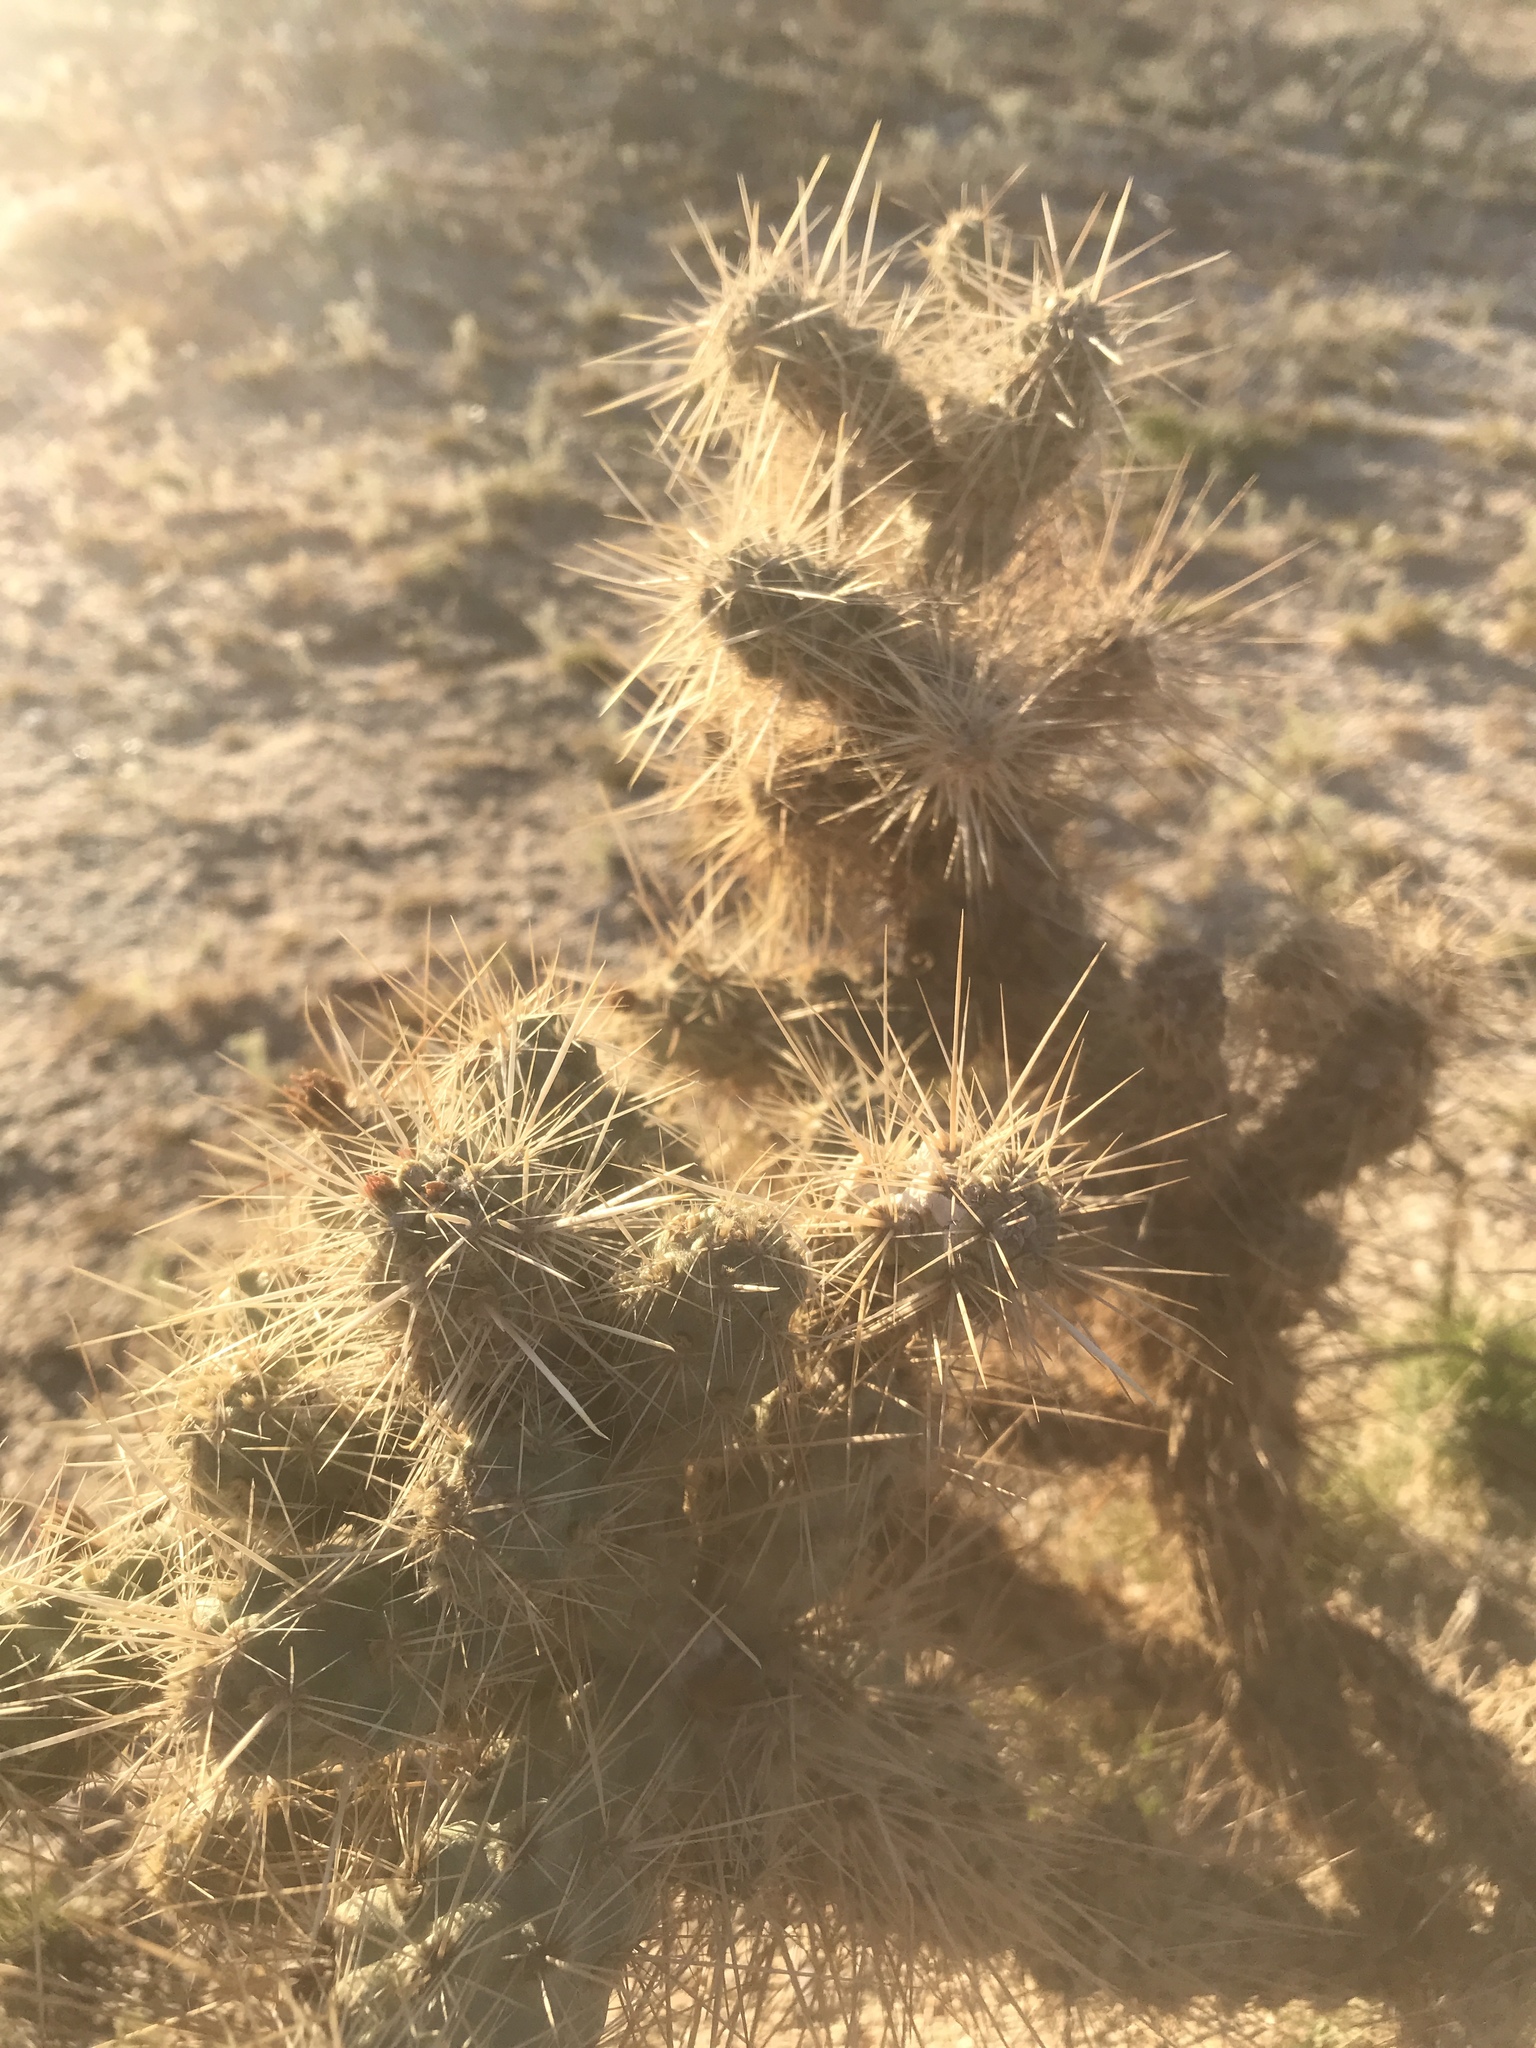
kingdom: Plantae
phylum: Tracheophyta
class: Magnoliopsida
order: Caryophyllales
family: Cactaceae
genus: Cylindropuntia
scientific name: Cylindropuntia echinocarpa
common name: Ground cholla
